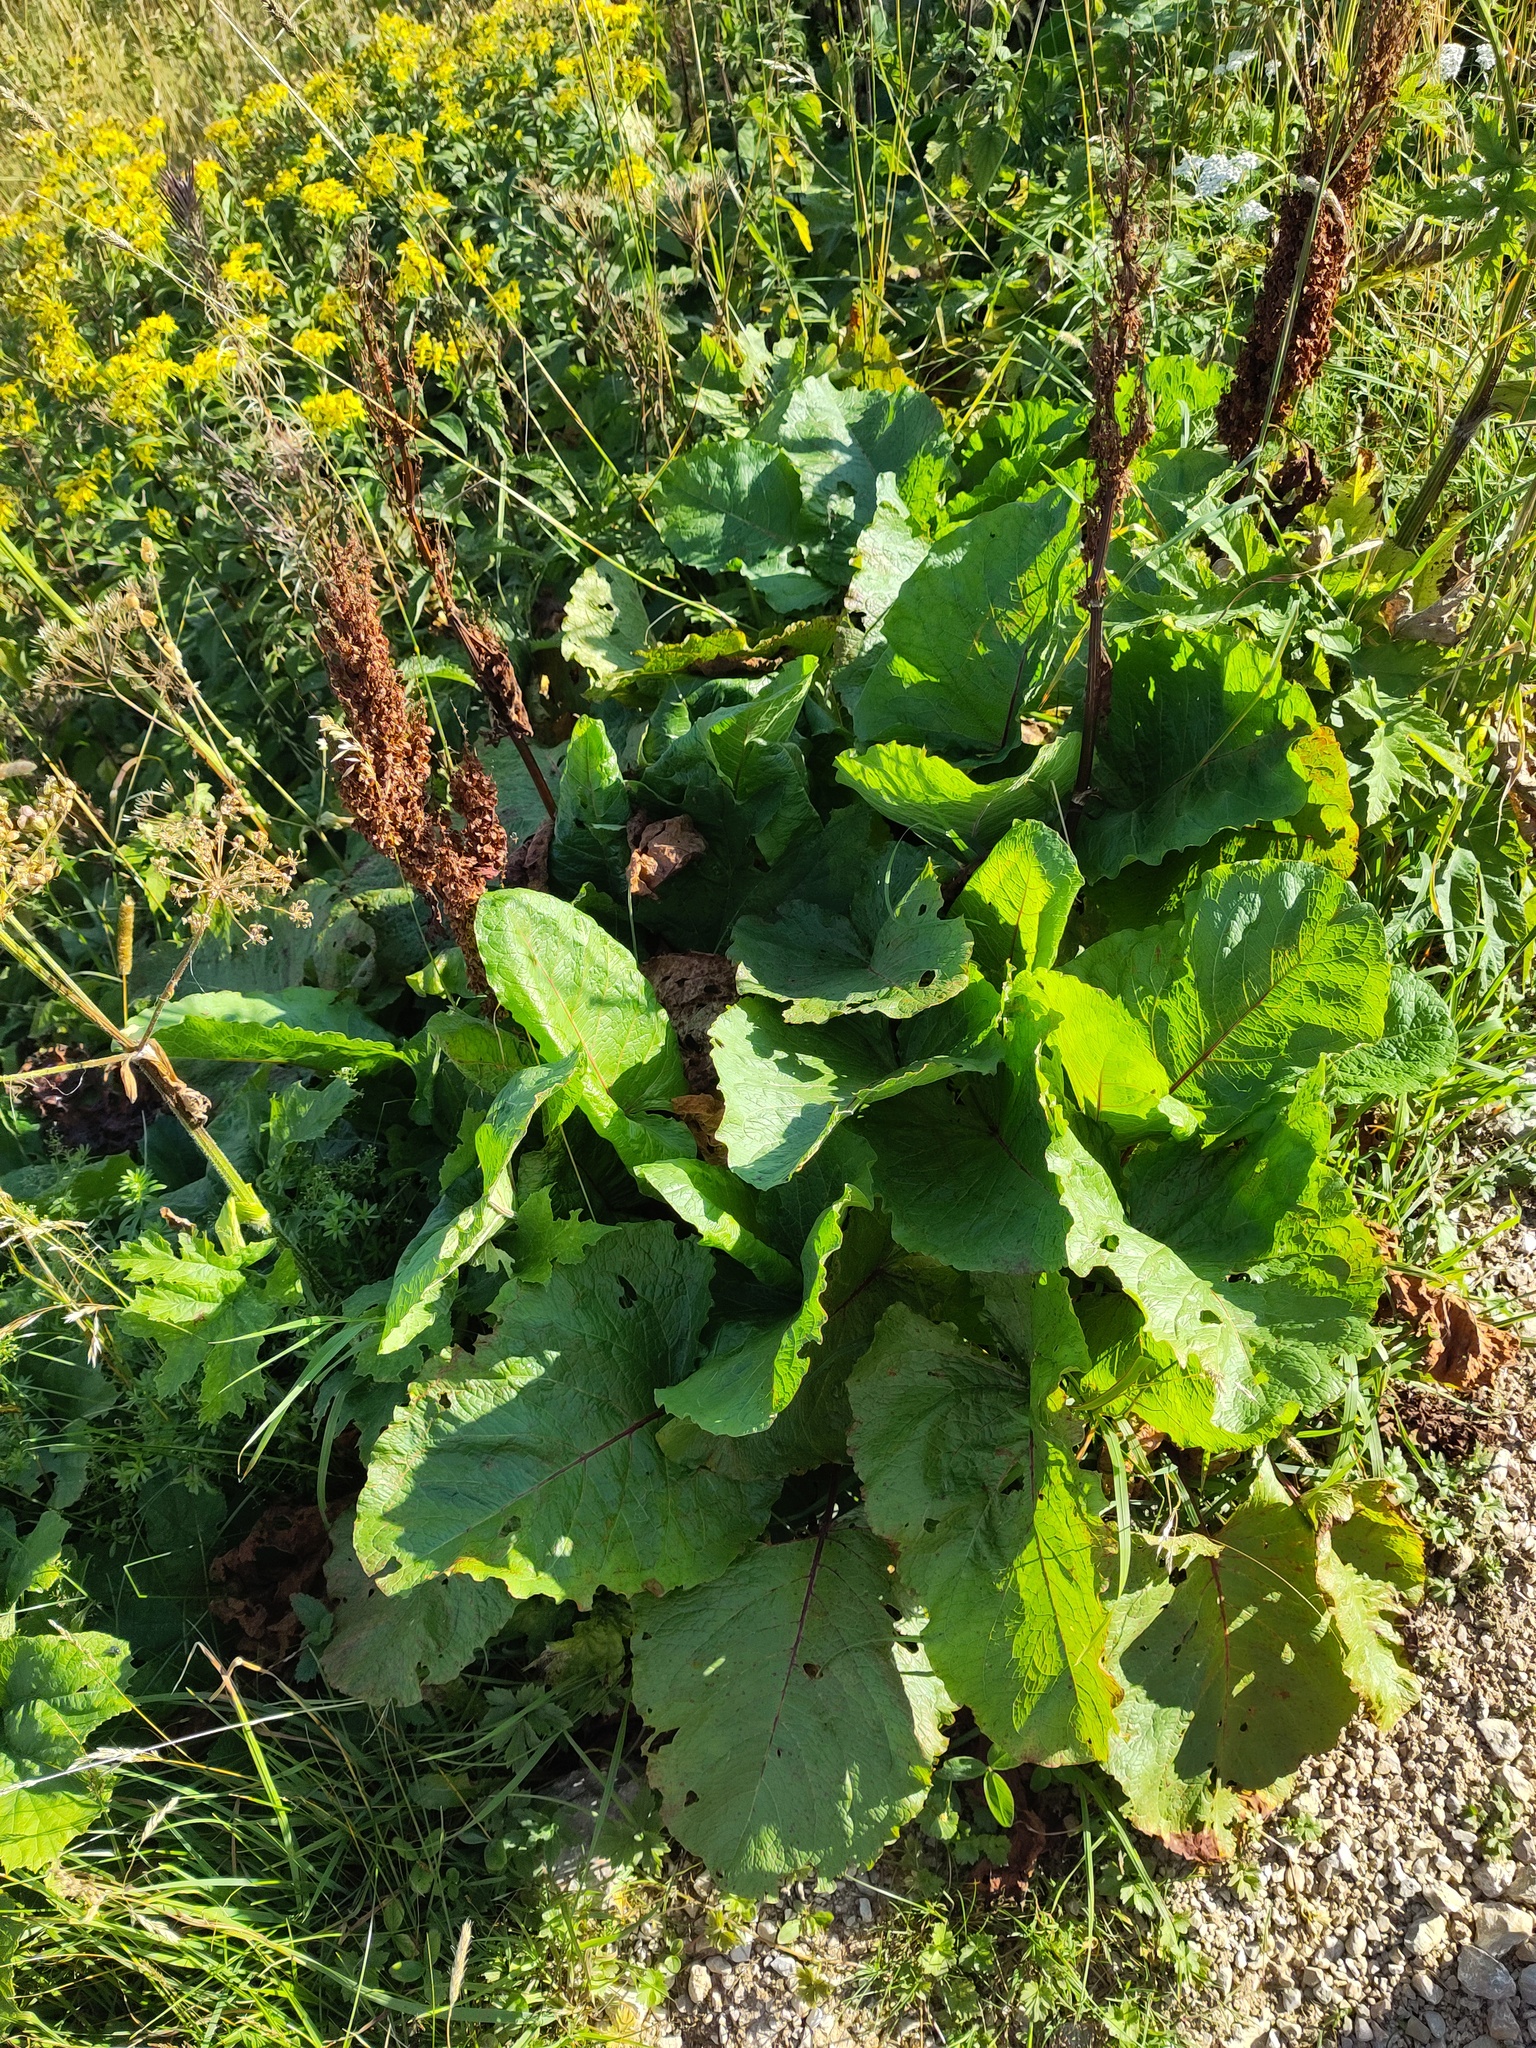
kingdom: Plantae
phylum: Tracheophyta
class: Magnoliopsida
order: Caryophyllales
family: Polygonaceae
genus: Rumex
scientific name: Rumex alpinus
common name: Alpine dock
